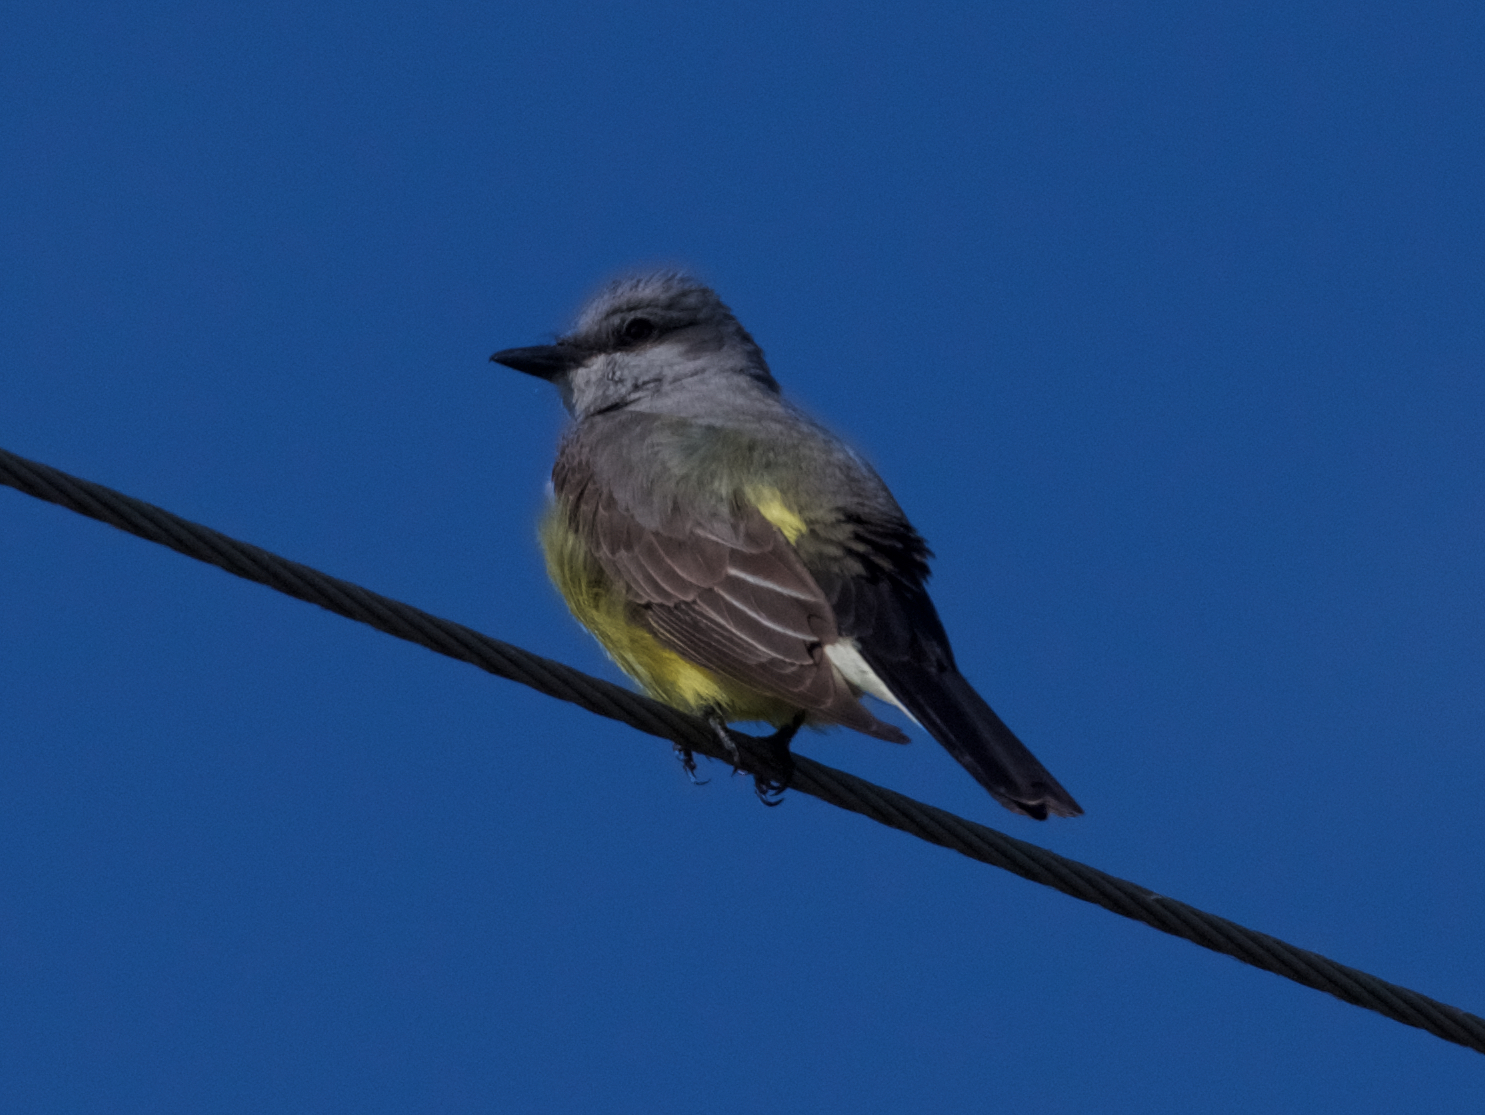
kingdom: Animalia
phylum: Chordata
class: Aves
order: Passeriformes
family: Tyrannidae
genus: Tyrannus
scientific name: Tyrannus verticalis
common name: Western kingbird
